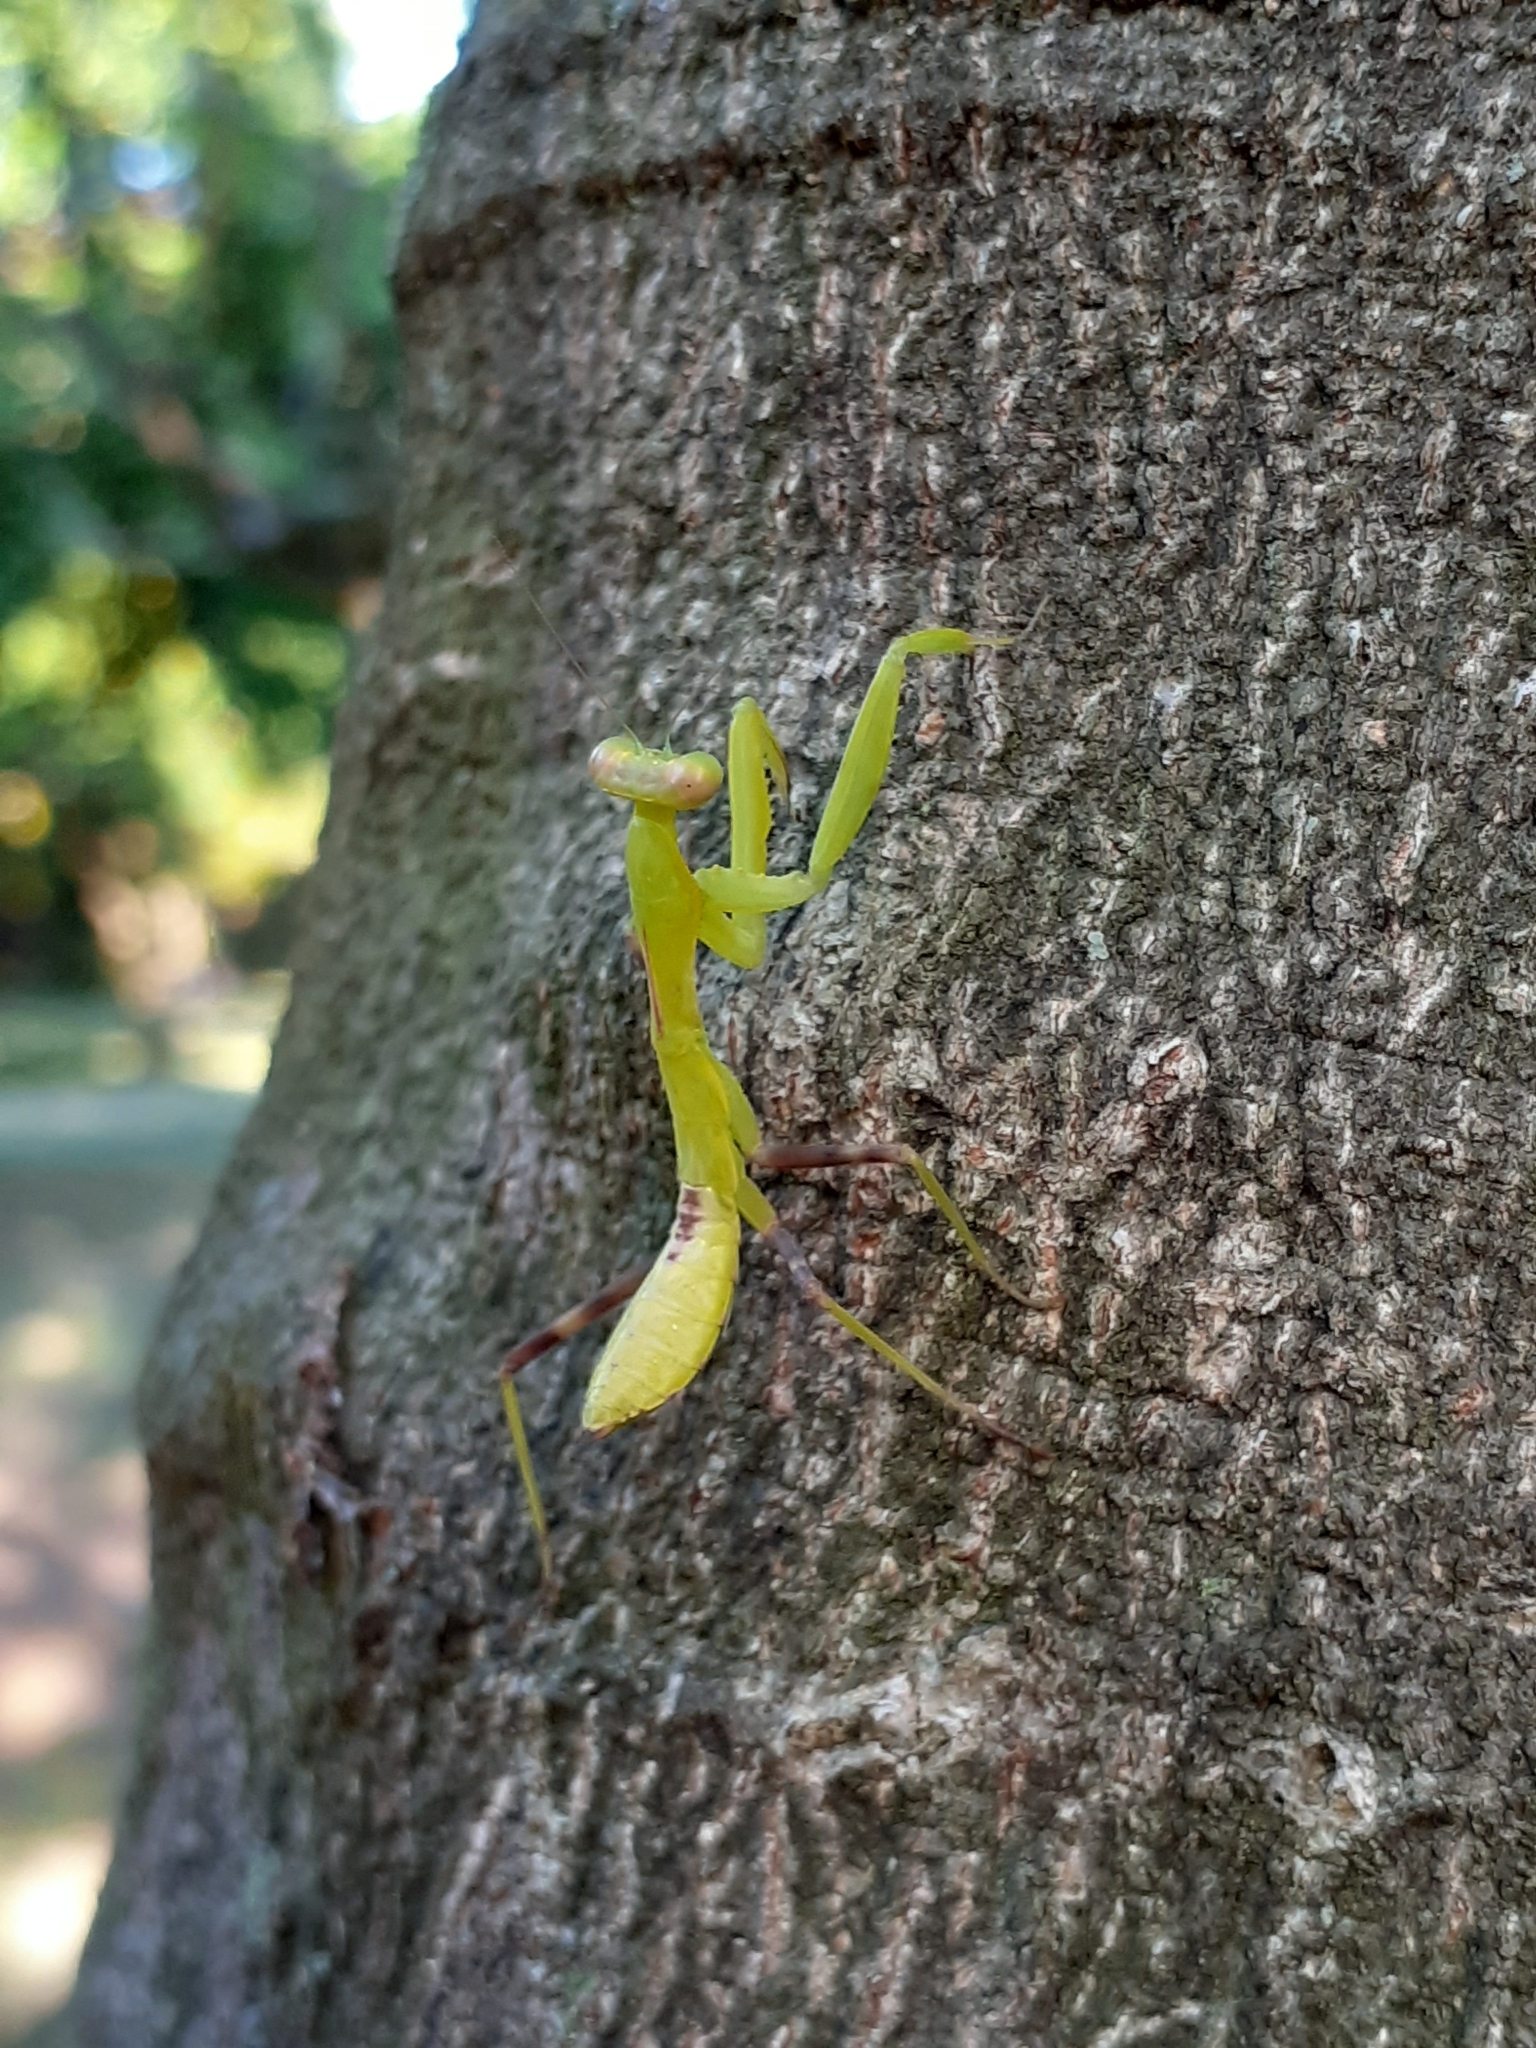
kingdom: Animalia
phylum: Arthropoda
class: Insecta
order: Mantodea
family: Mantidae
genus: Hierodula
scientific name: Hierodula patellifera
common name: Asian mantis
